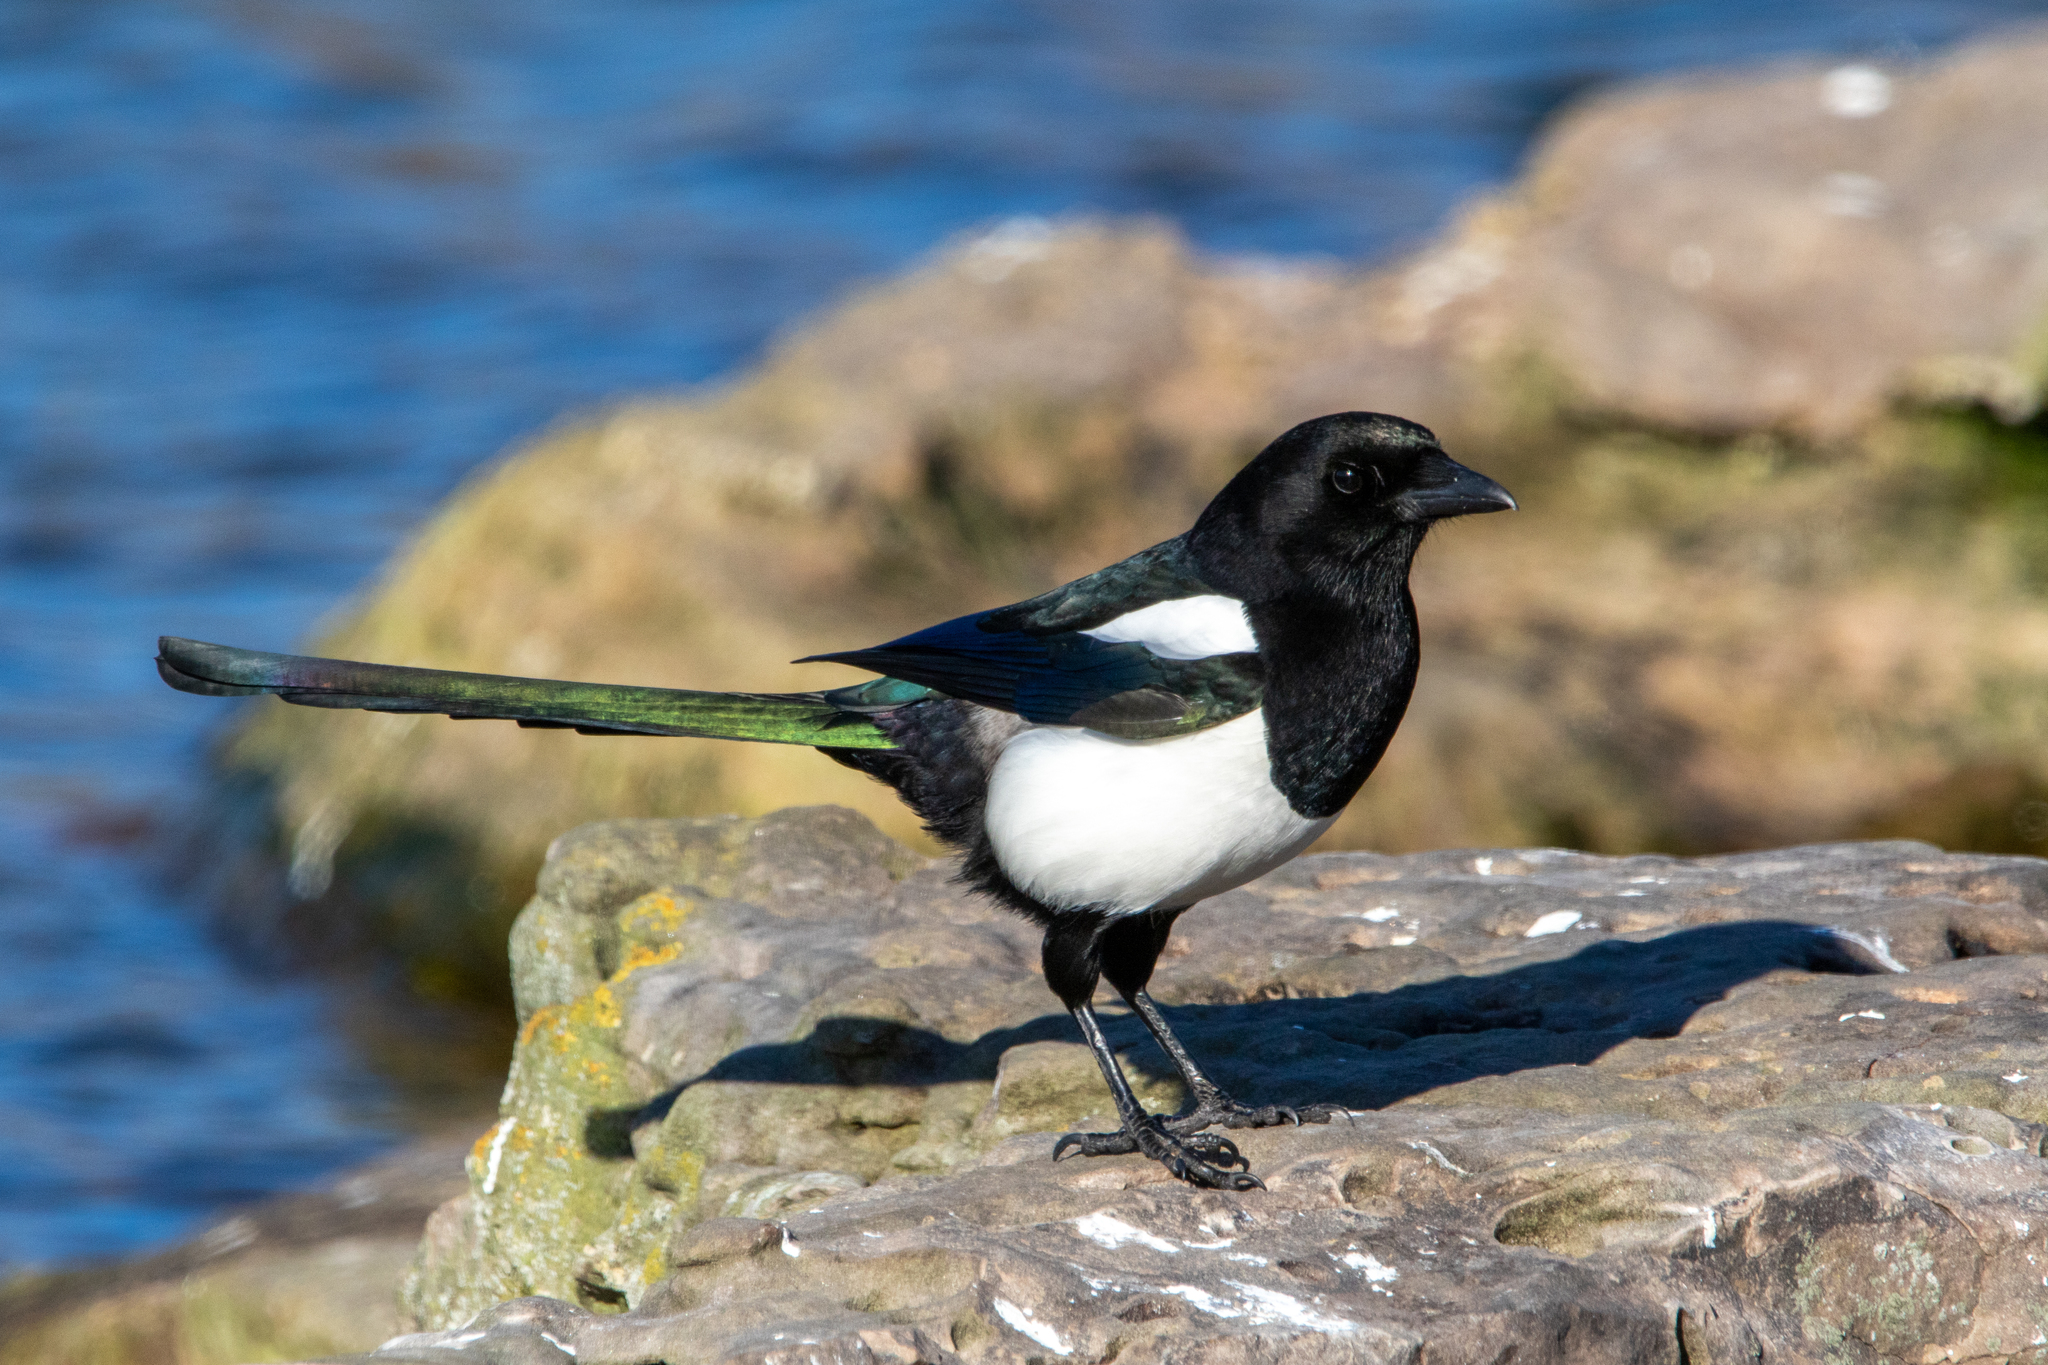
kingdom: Animalia
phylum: Chordata
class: Aves
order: Passeriformes
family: Corvidae
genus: Pica
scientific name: Pica pica
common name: Eurasian magpie
